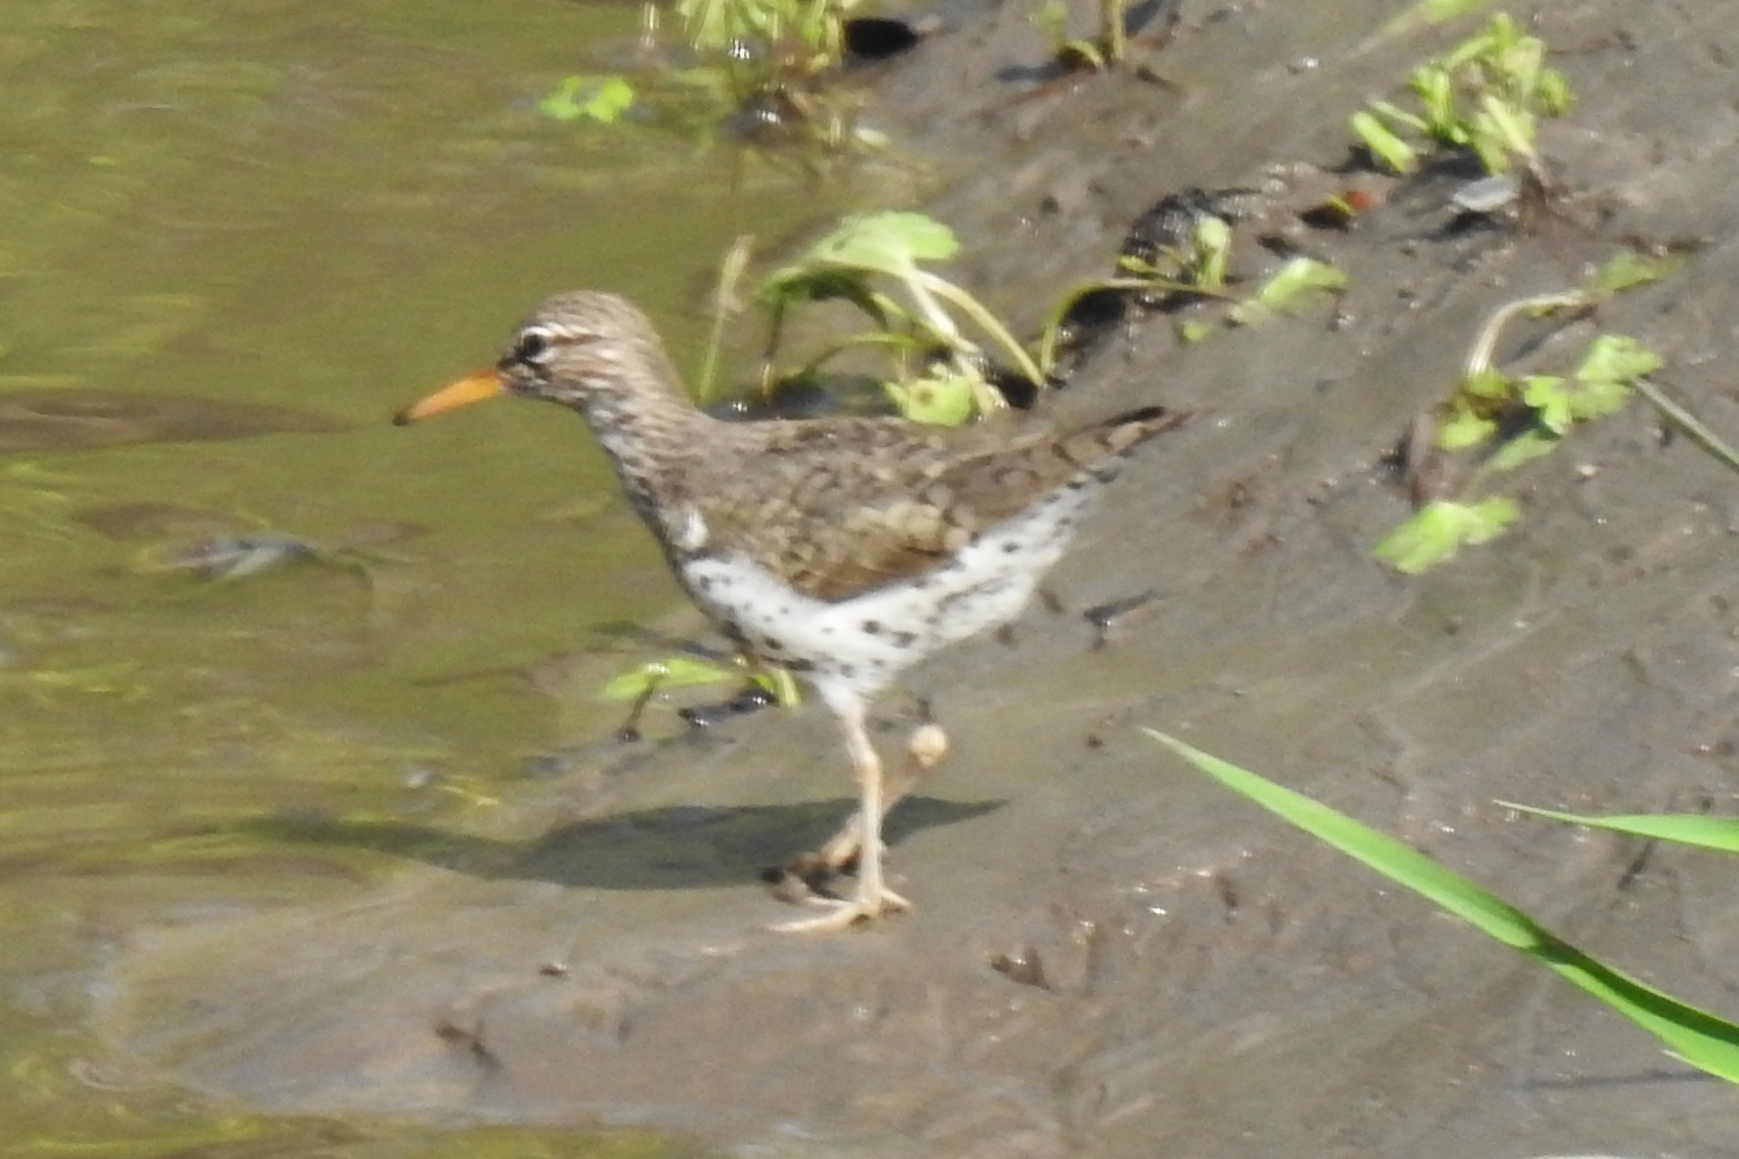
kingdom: Animalia
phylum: Chordata
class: Aves
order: Charadriiformes
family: Scolopacidae
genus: Actitis
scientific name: Actitis macularius
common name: Spotted sandpiper
